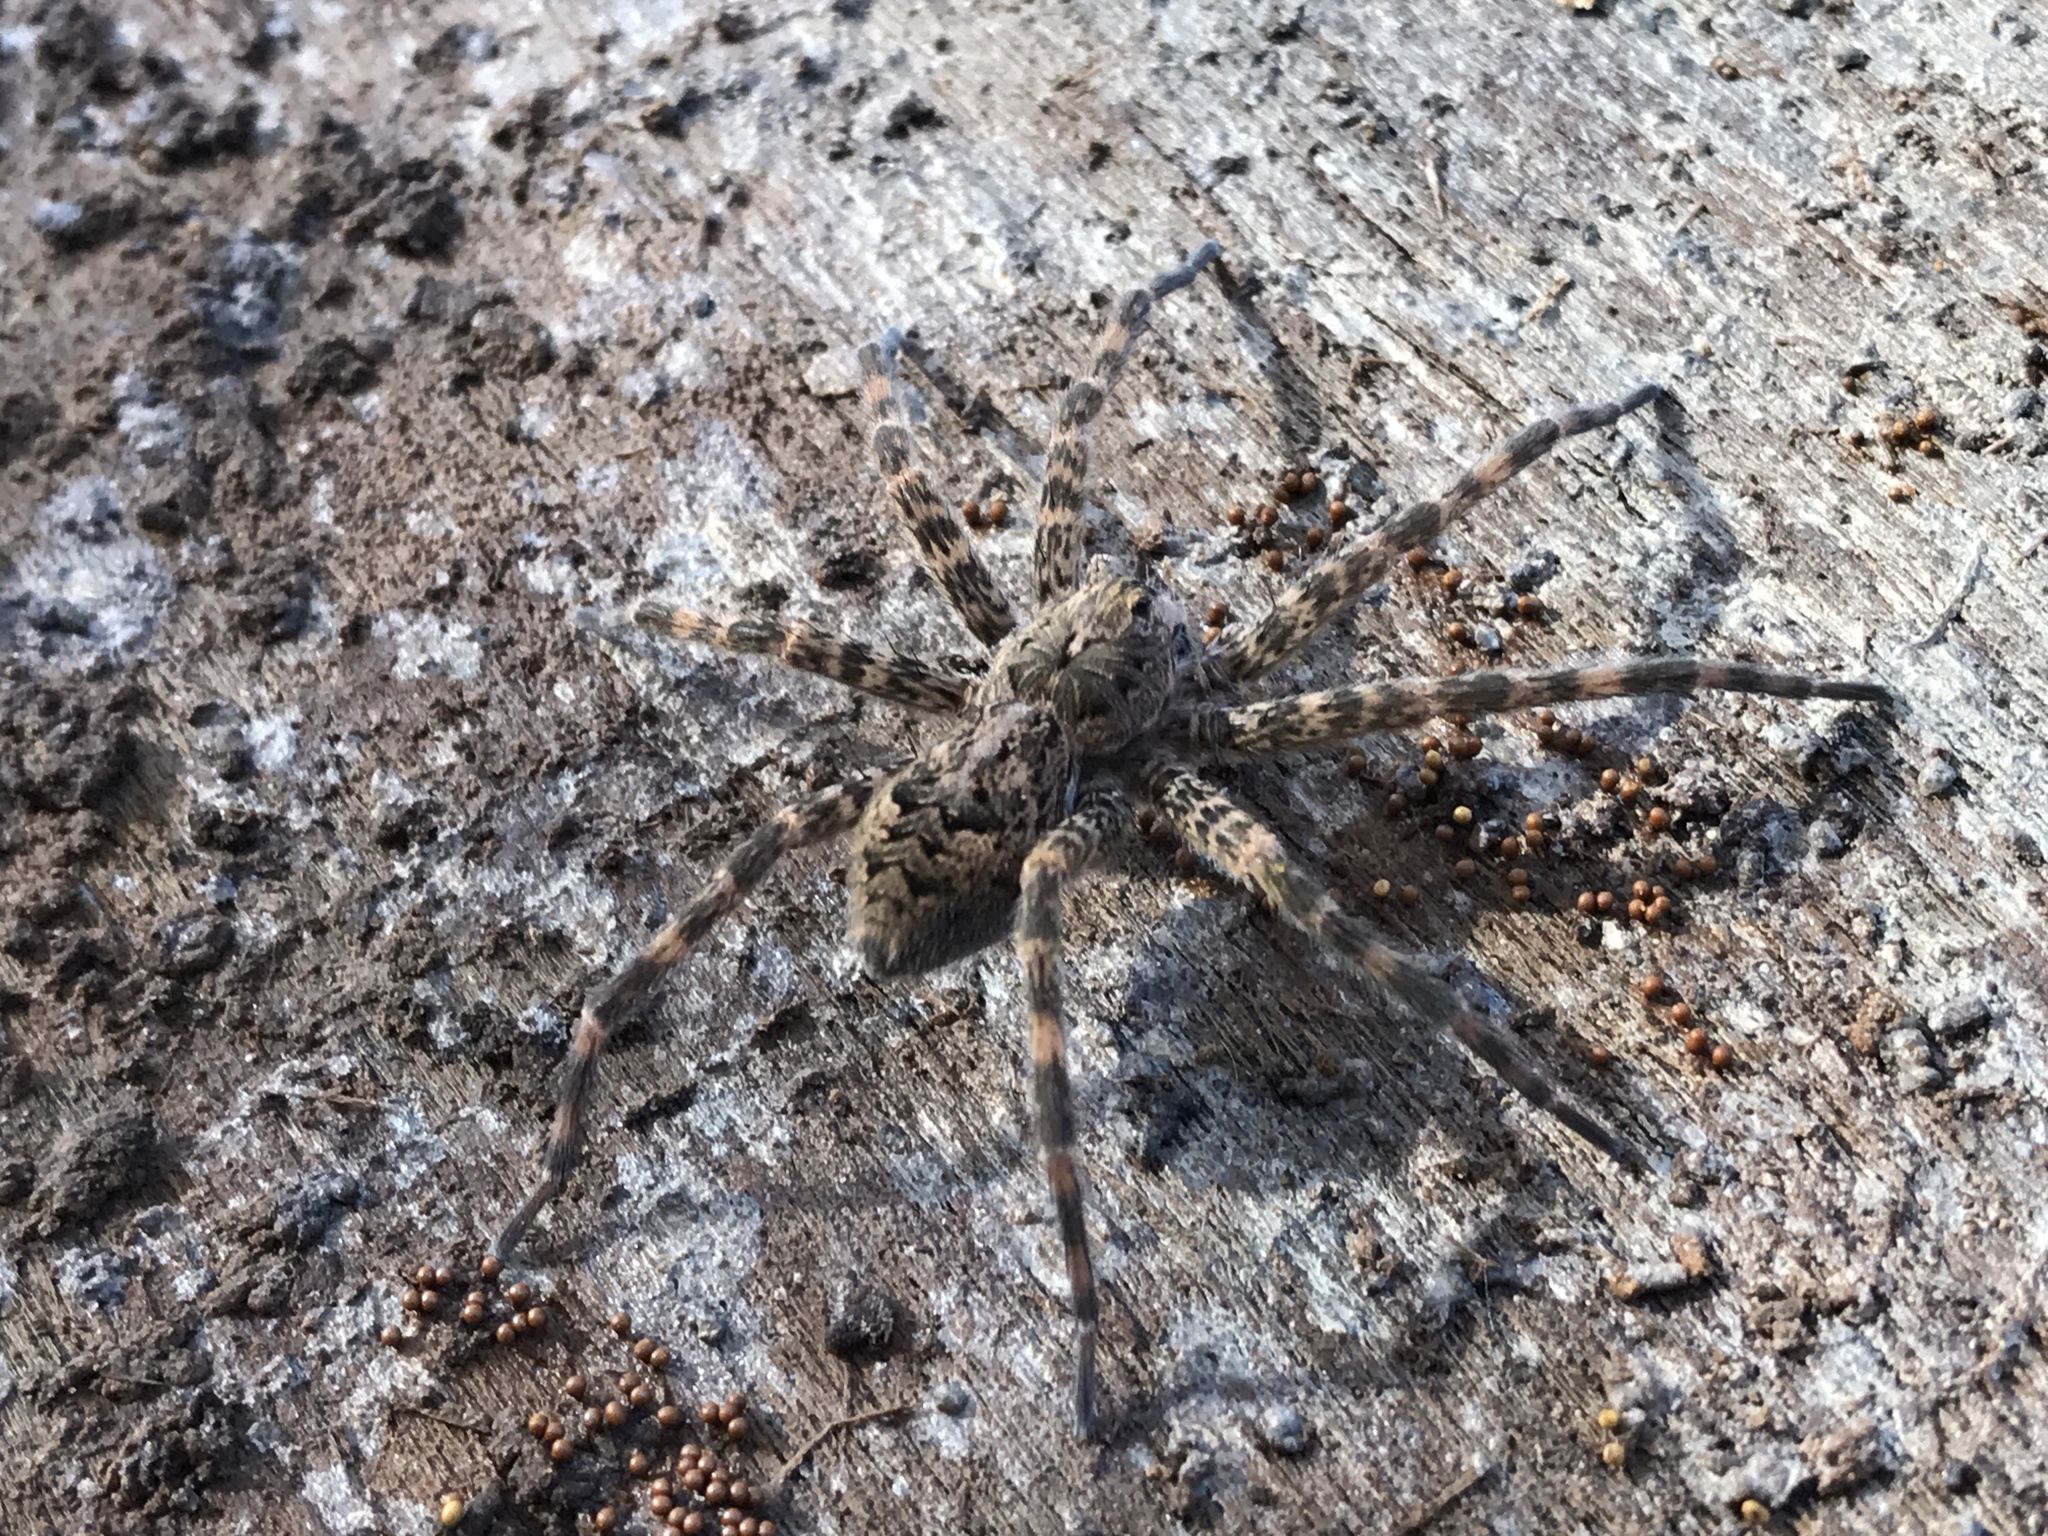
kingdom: Animalia
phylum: Arthropoda
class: Arachnida
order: Araneae
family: Pisauridae
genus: Dolomedes
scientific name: Dolomedes tenebrosus
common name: Dark fishing spider
